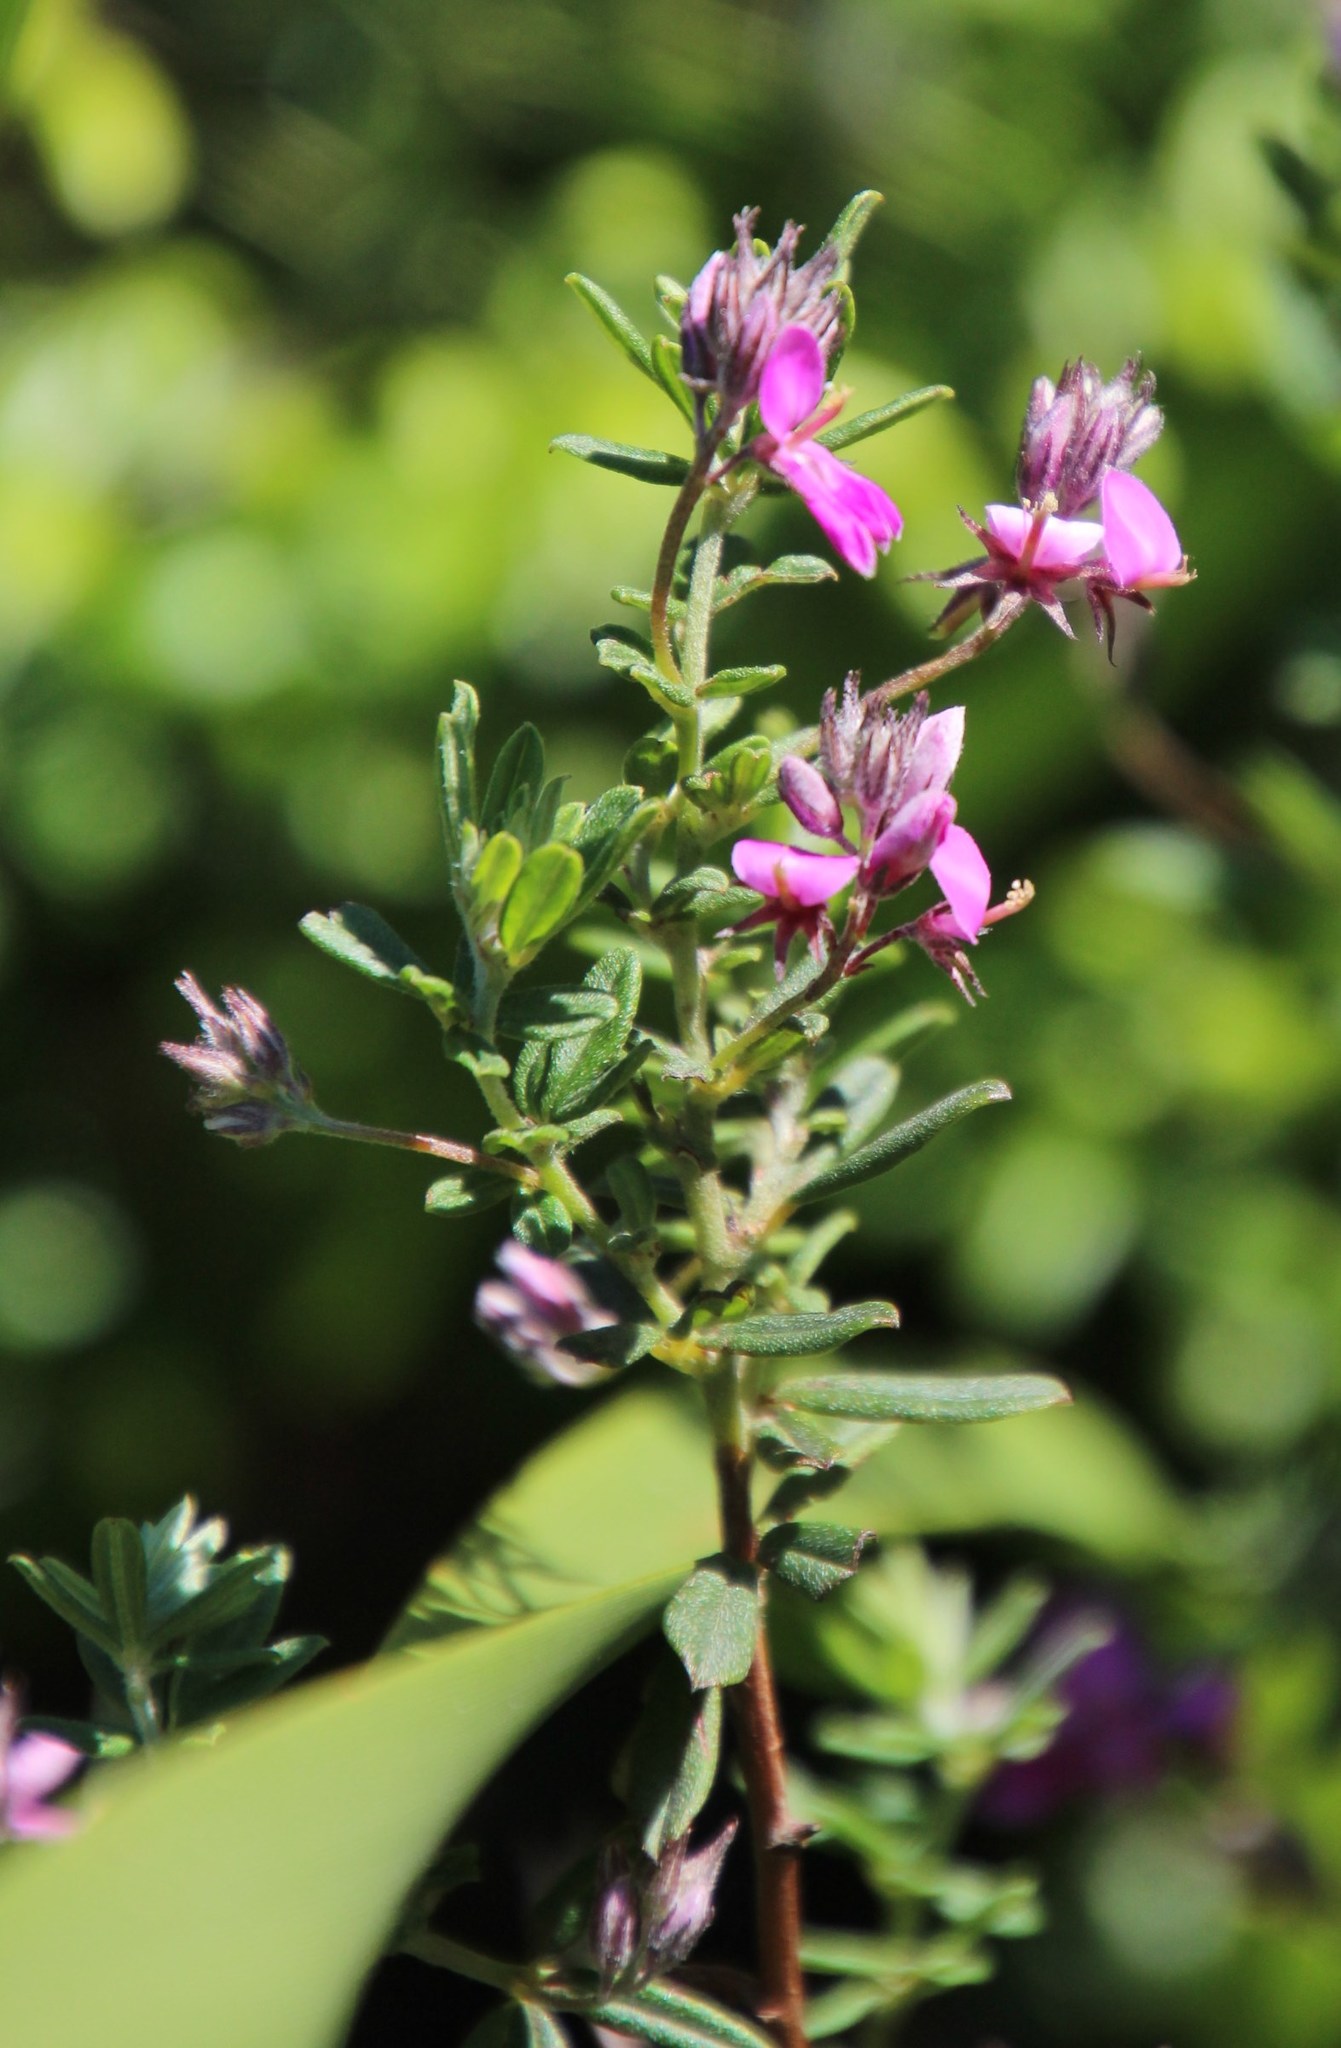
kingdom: Plantae
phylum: Tracheophyta
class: Magnoliopsida
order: Fabales
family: Fabaceae
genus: Indigofera
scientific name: Indigofera filiformis
